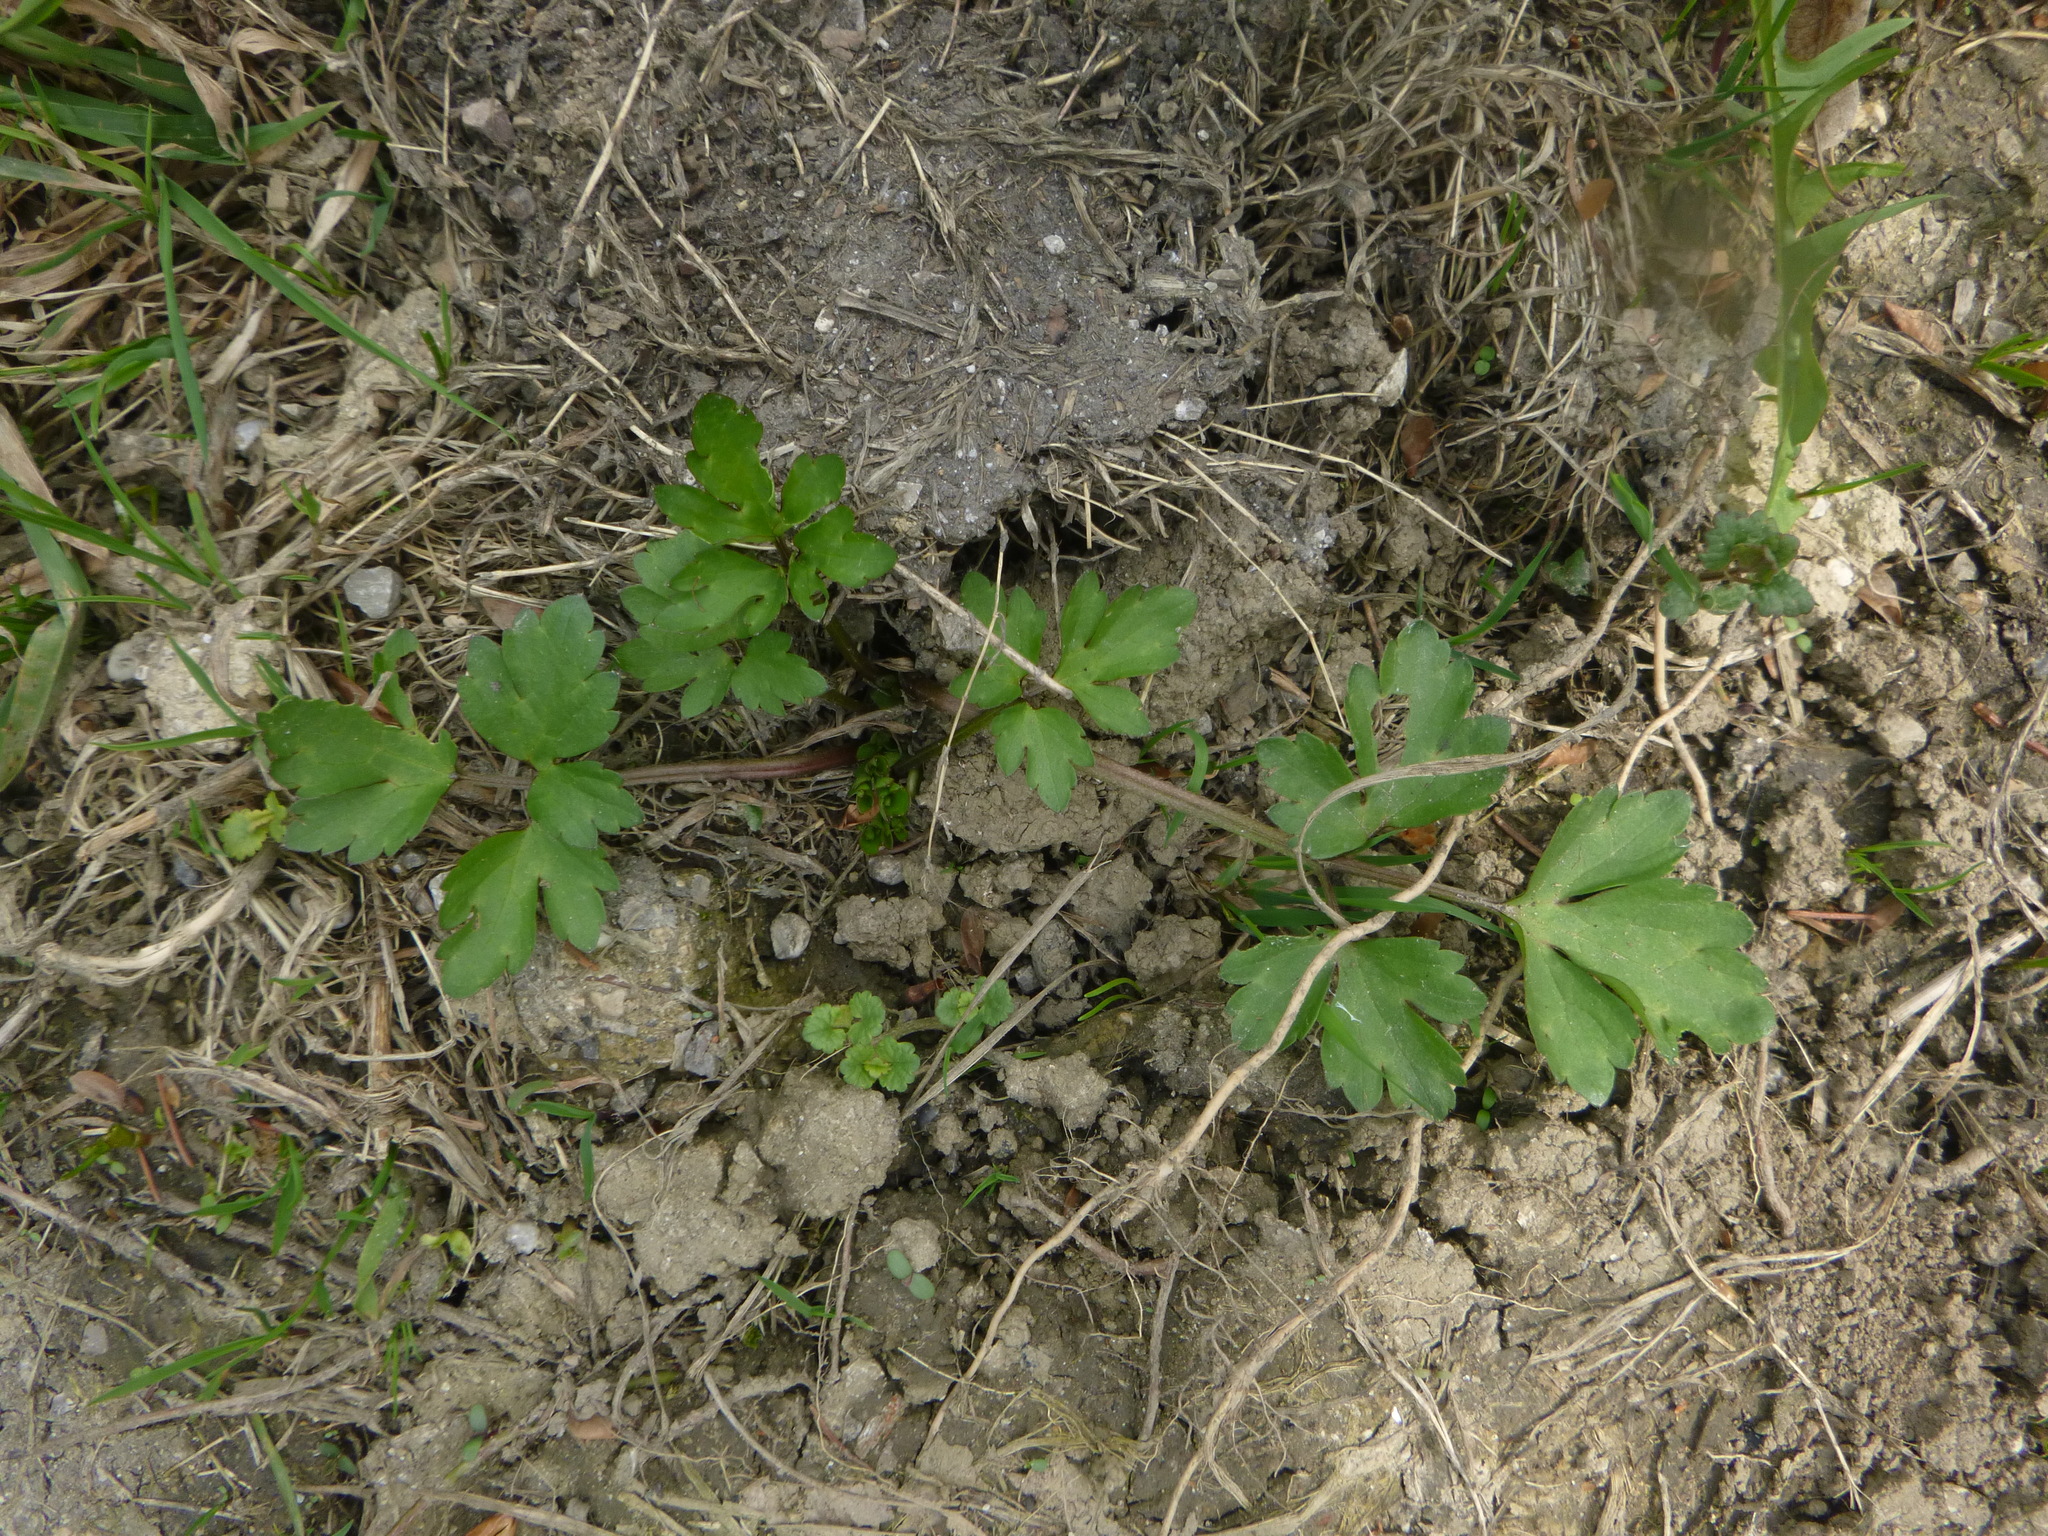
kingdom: Plantae
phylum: Tracheophyta
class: Magnoliopsida
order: Ranunculales
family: Ranunculaceae
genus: Ranunculus
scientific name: Ranunculus repens
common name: Creeping buttercup
